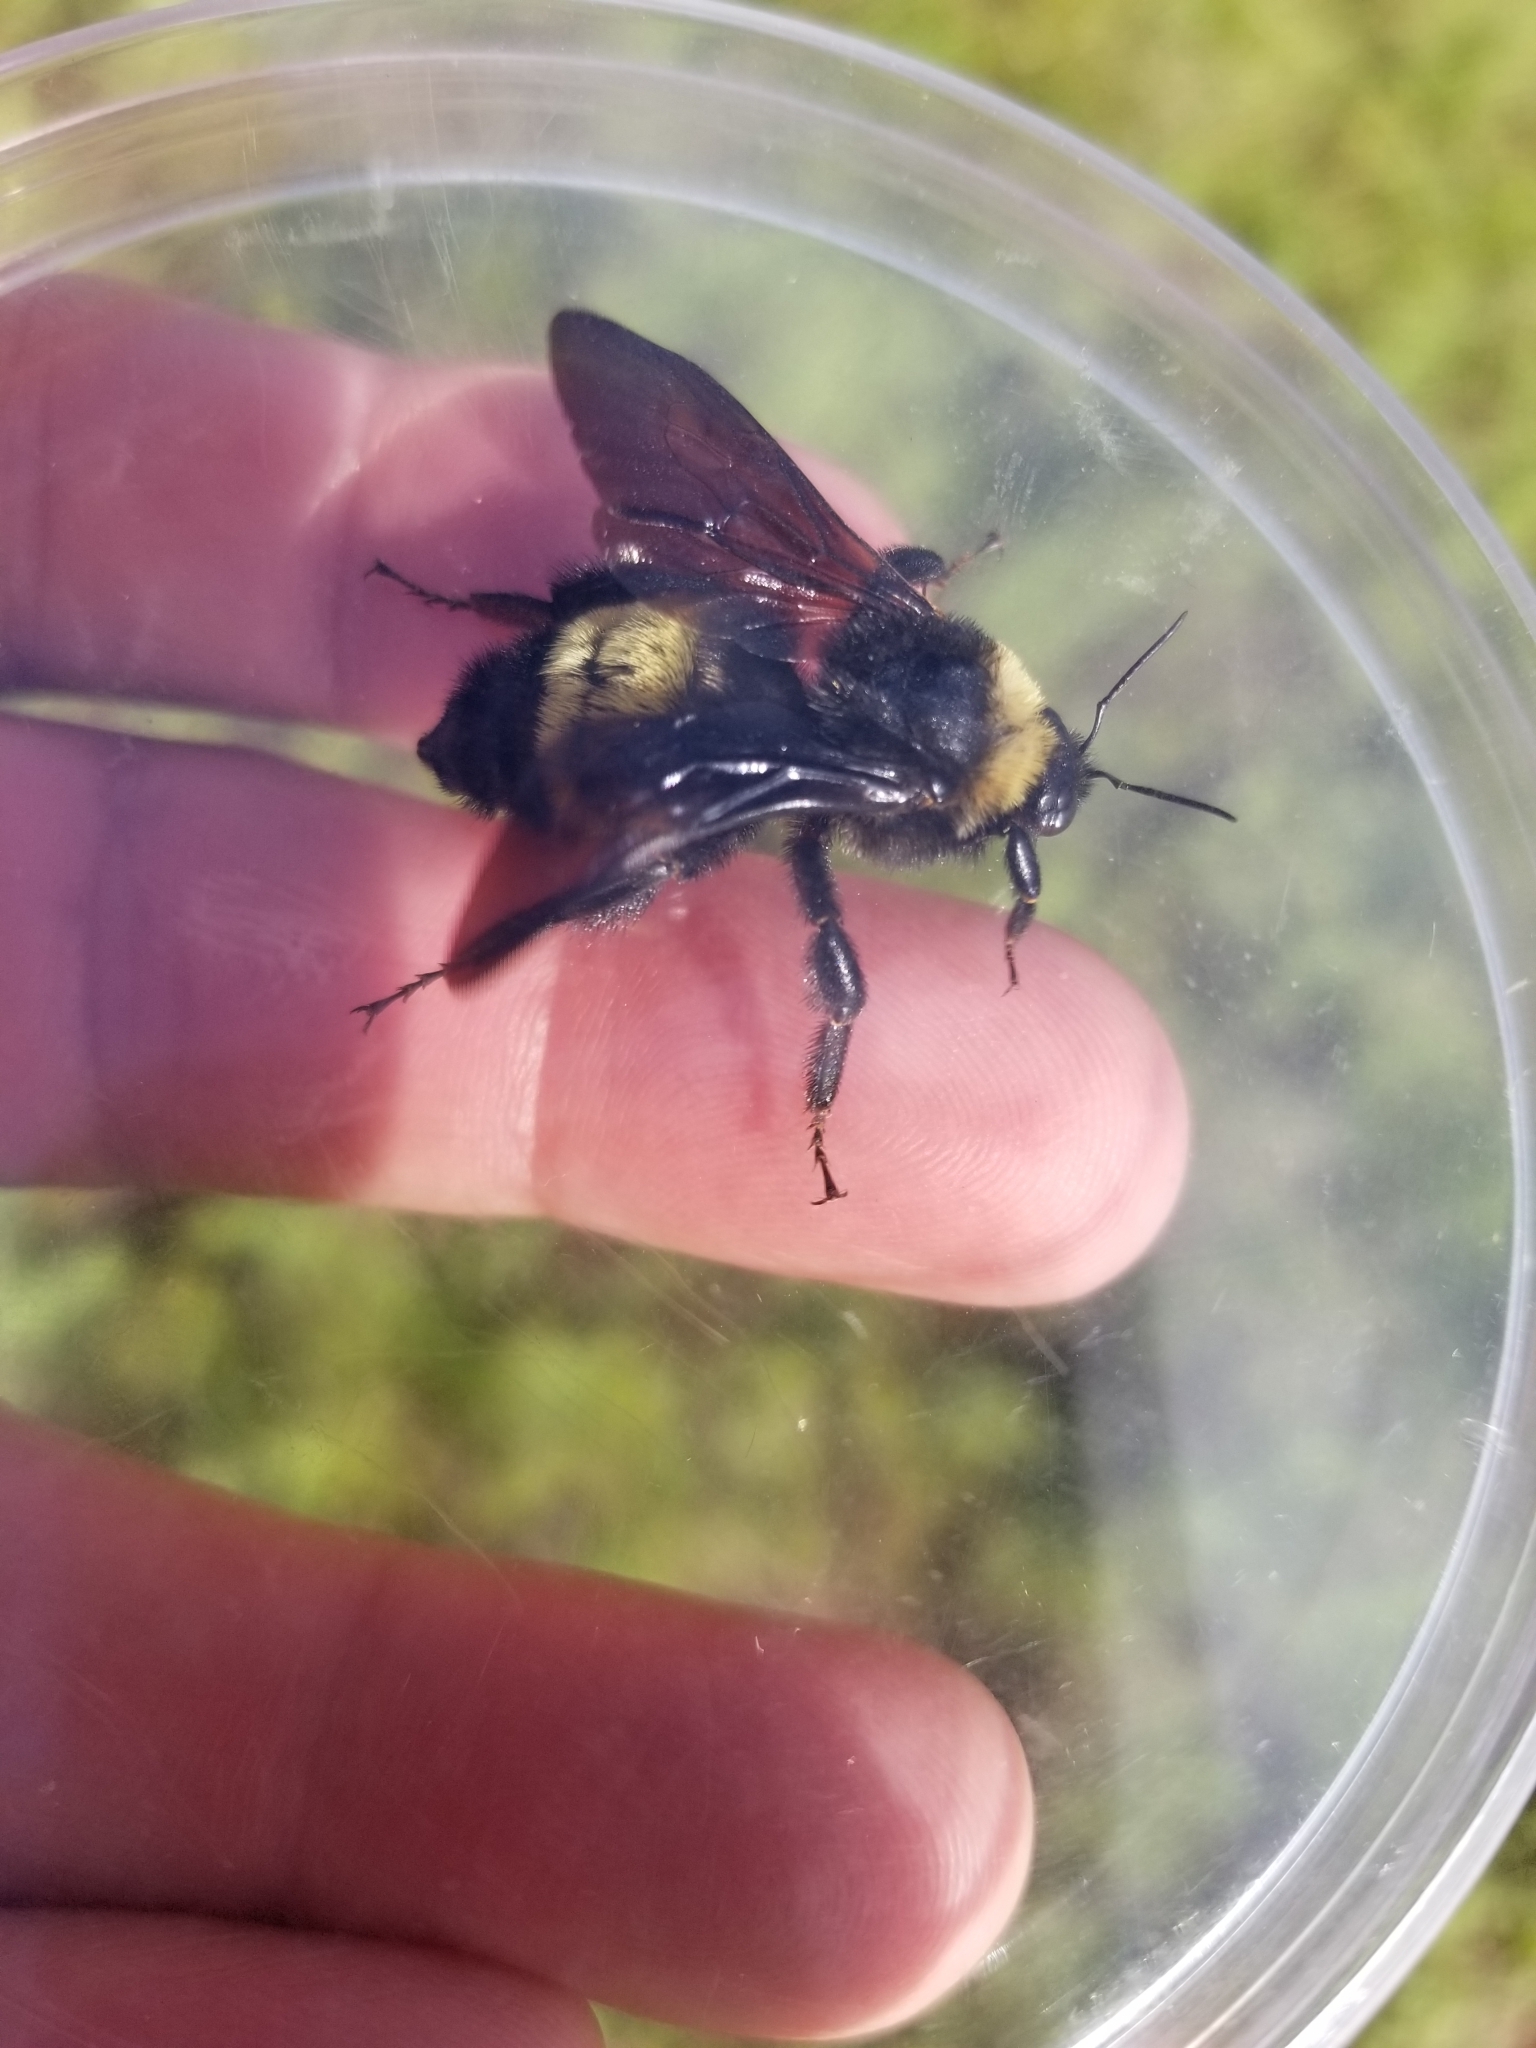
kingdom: Animalia
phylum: Arthropoda
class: Insecta
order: Hymenoptera
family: Apidae
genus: Bombus
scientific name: Bombus pensylvanicus
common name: Bumble bee
